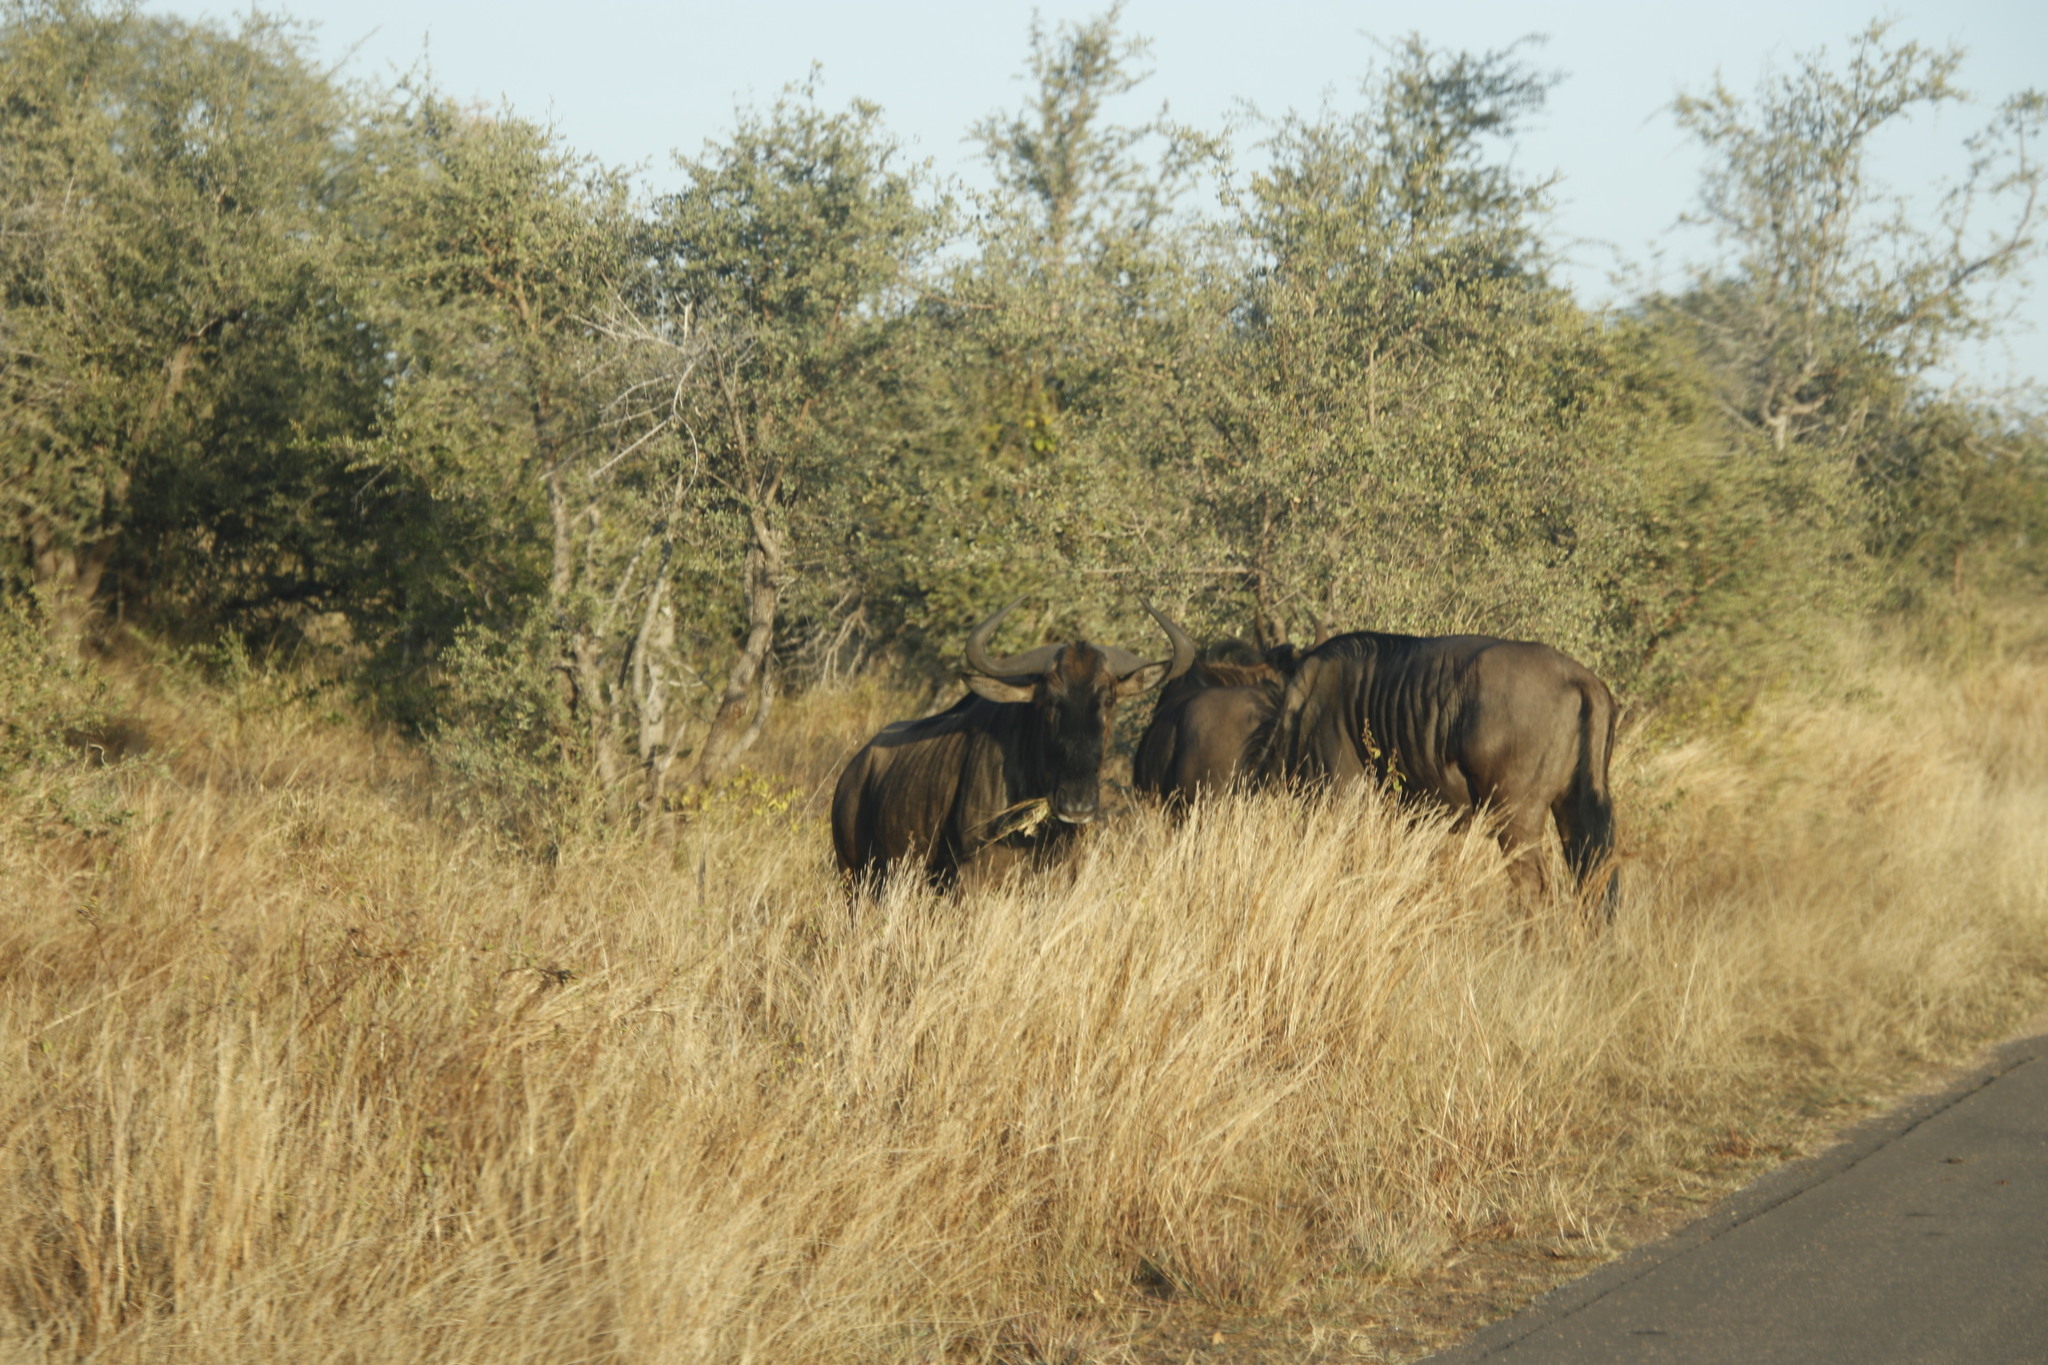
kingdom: Animalia
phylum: Chordata
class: Mammalia
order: Artiodactyla
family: Bovidae
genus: Connochaetes
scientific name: Connochaetes taurinus
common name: Blue wildebeest
